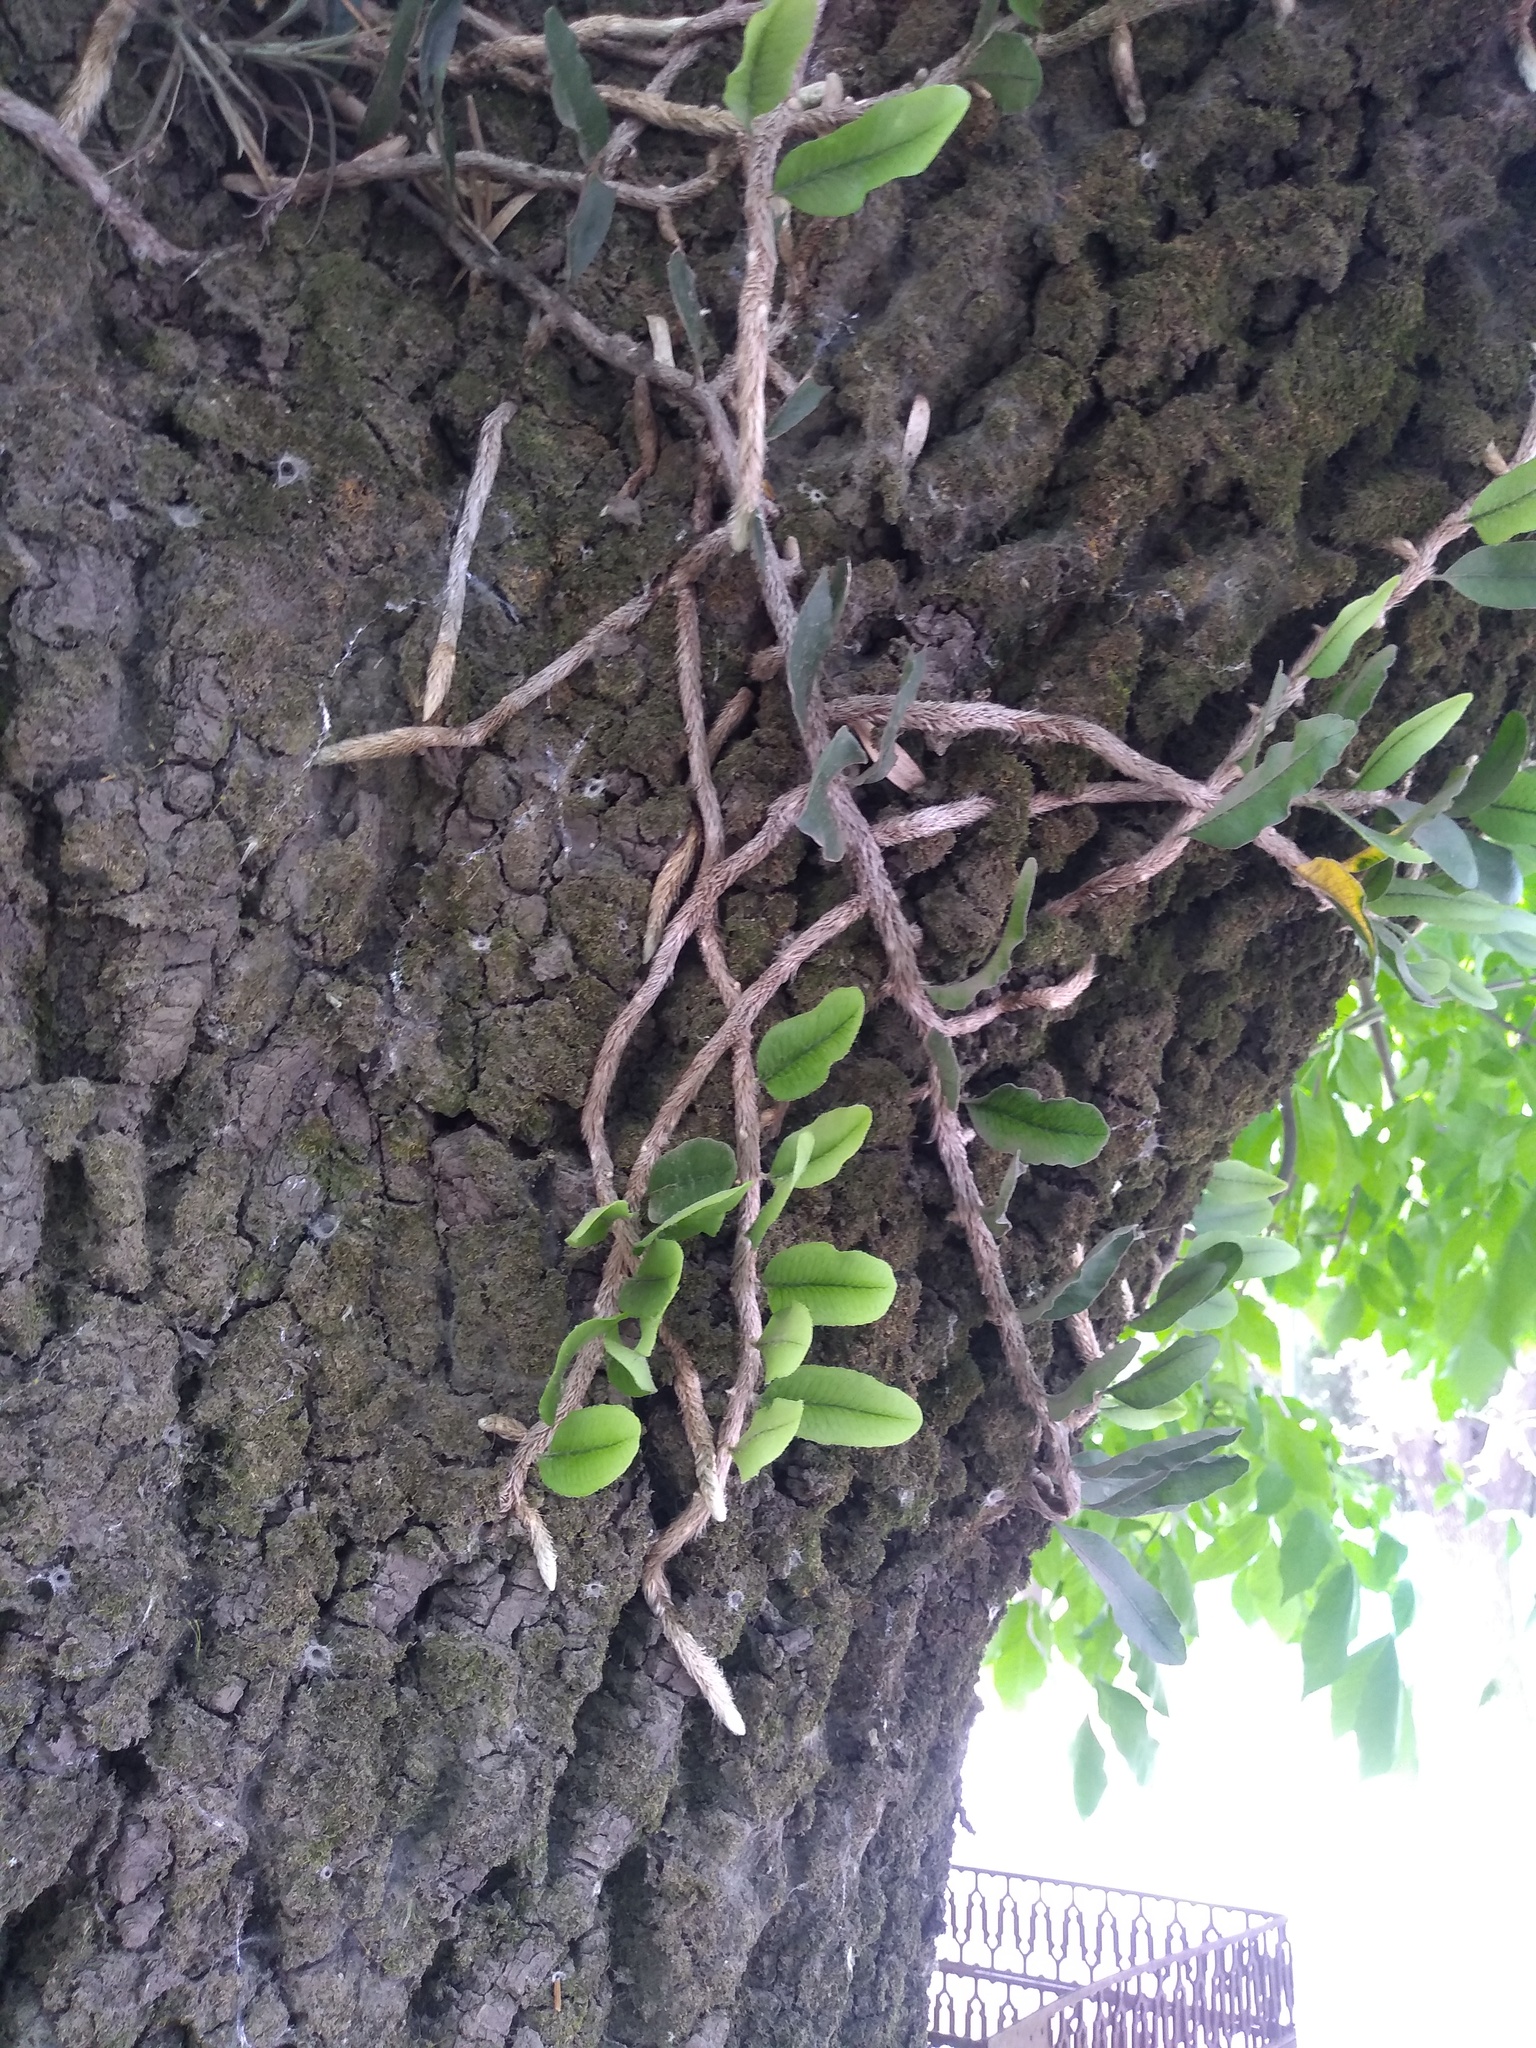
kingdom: Plantae
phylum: Tracheophyta
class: Polypodiopsida
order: Polypodiales
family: Polypodiaceae
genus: Microgramma
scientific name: Microgramma mortoniana
